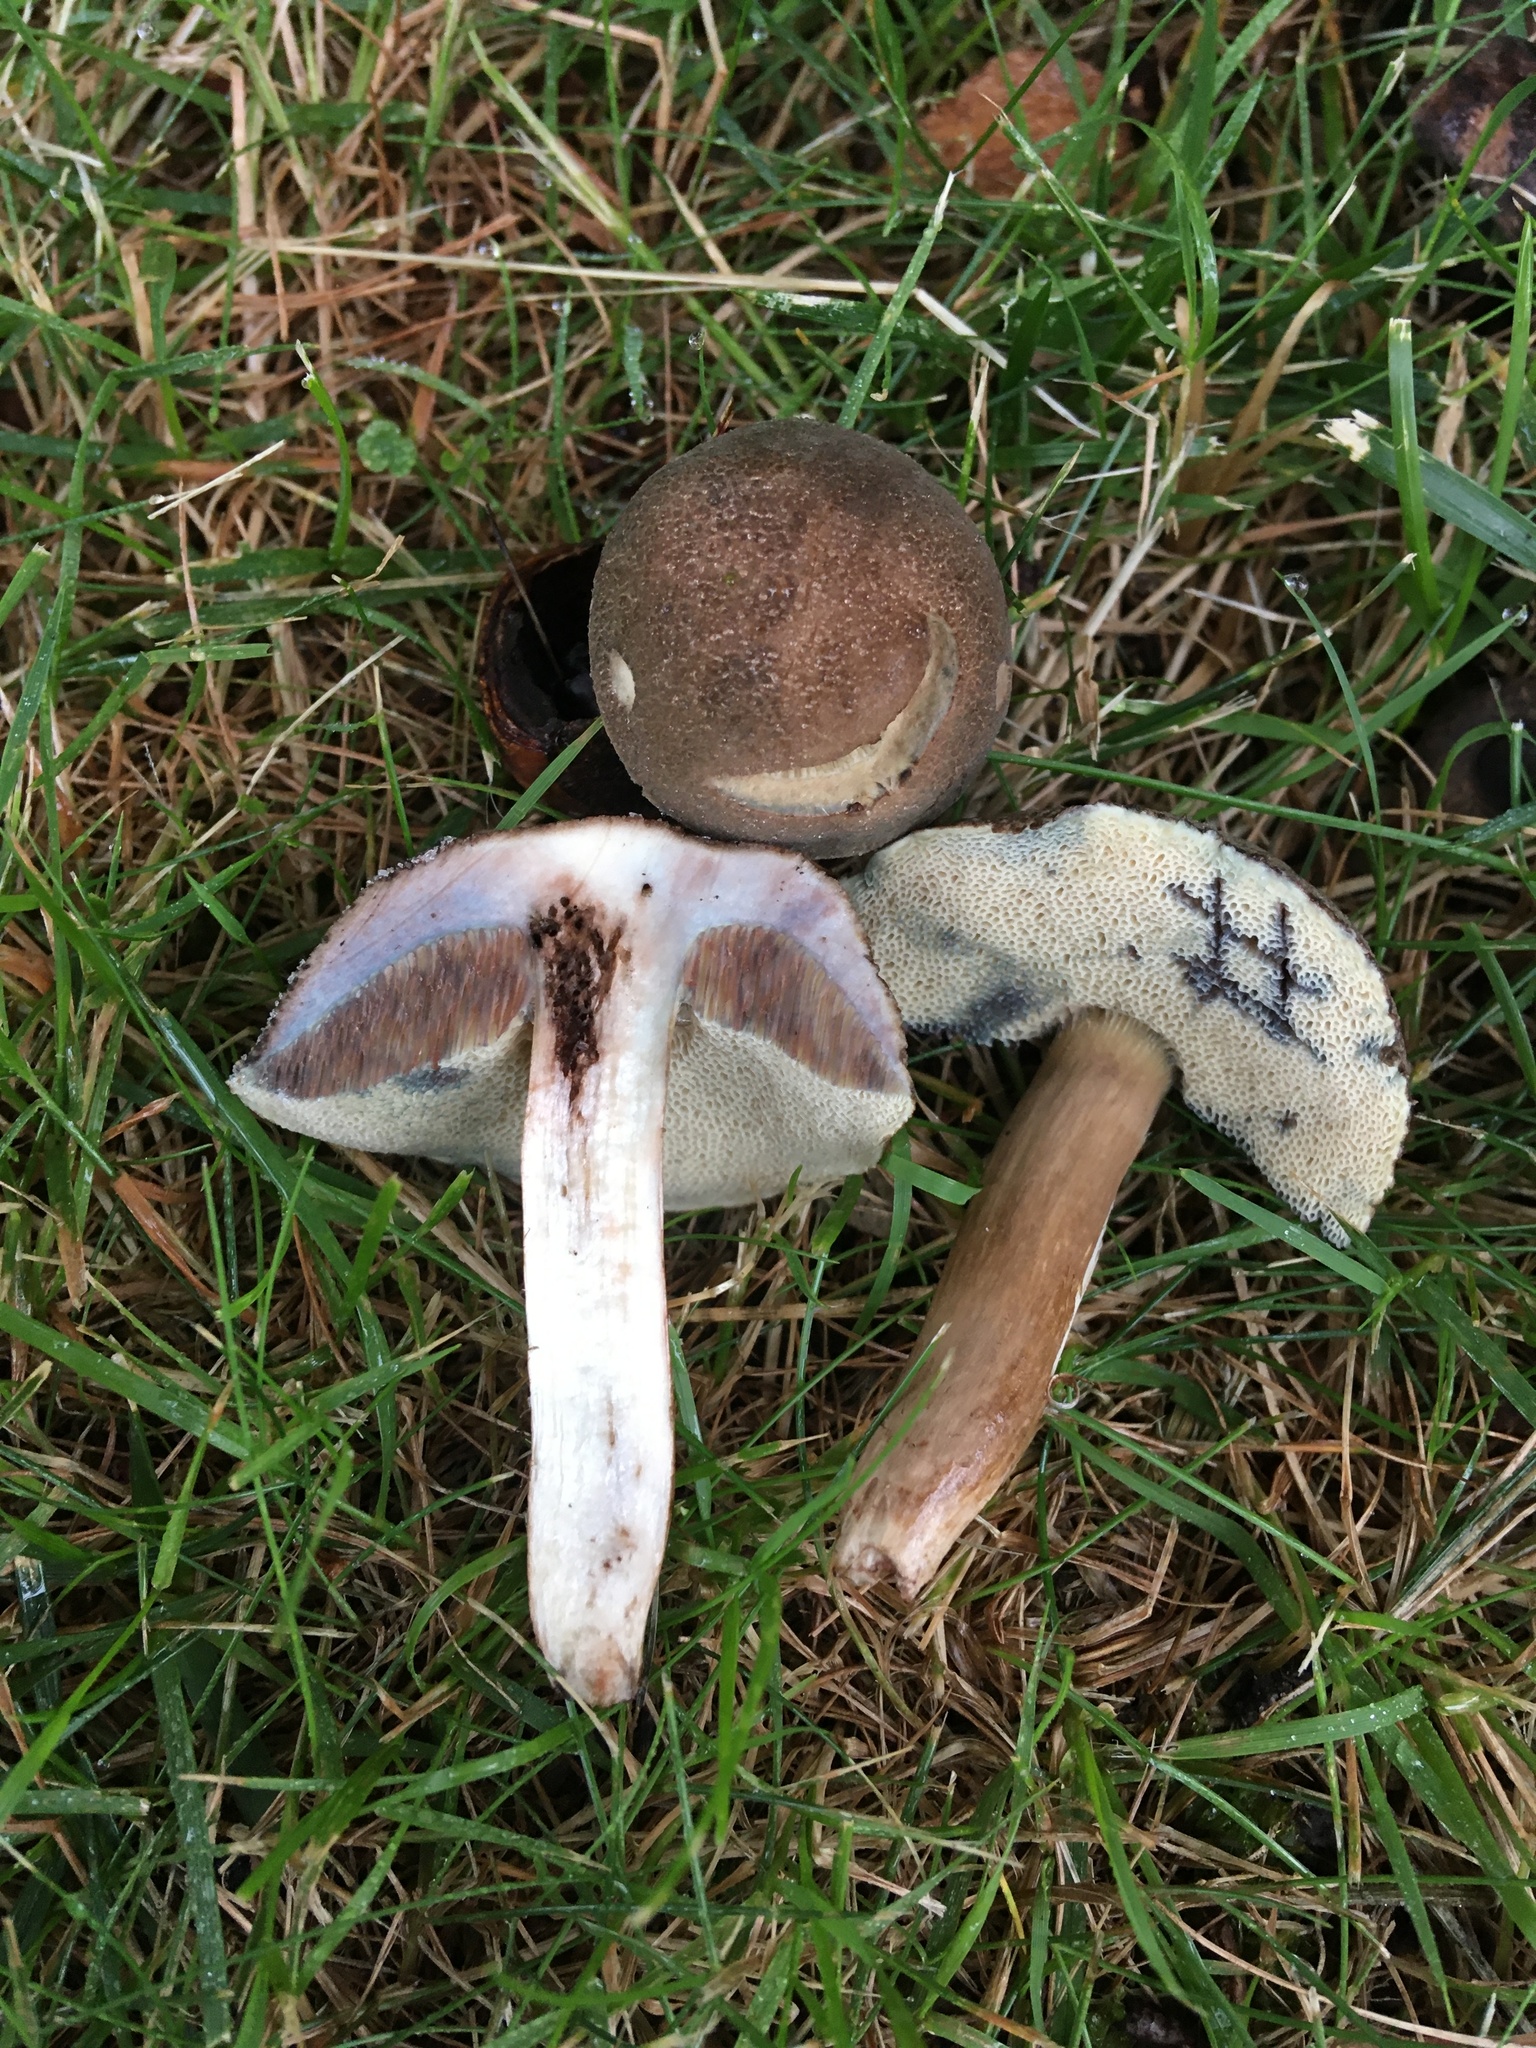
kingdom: Fungi
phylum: Basidiomycota
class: Agaricomycetes
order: Boletales
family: Boletaceae
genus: Porphyrellus
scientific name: Porphyrellus sordidus
